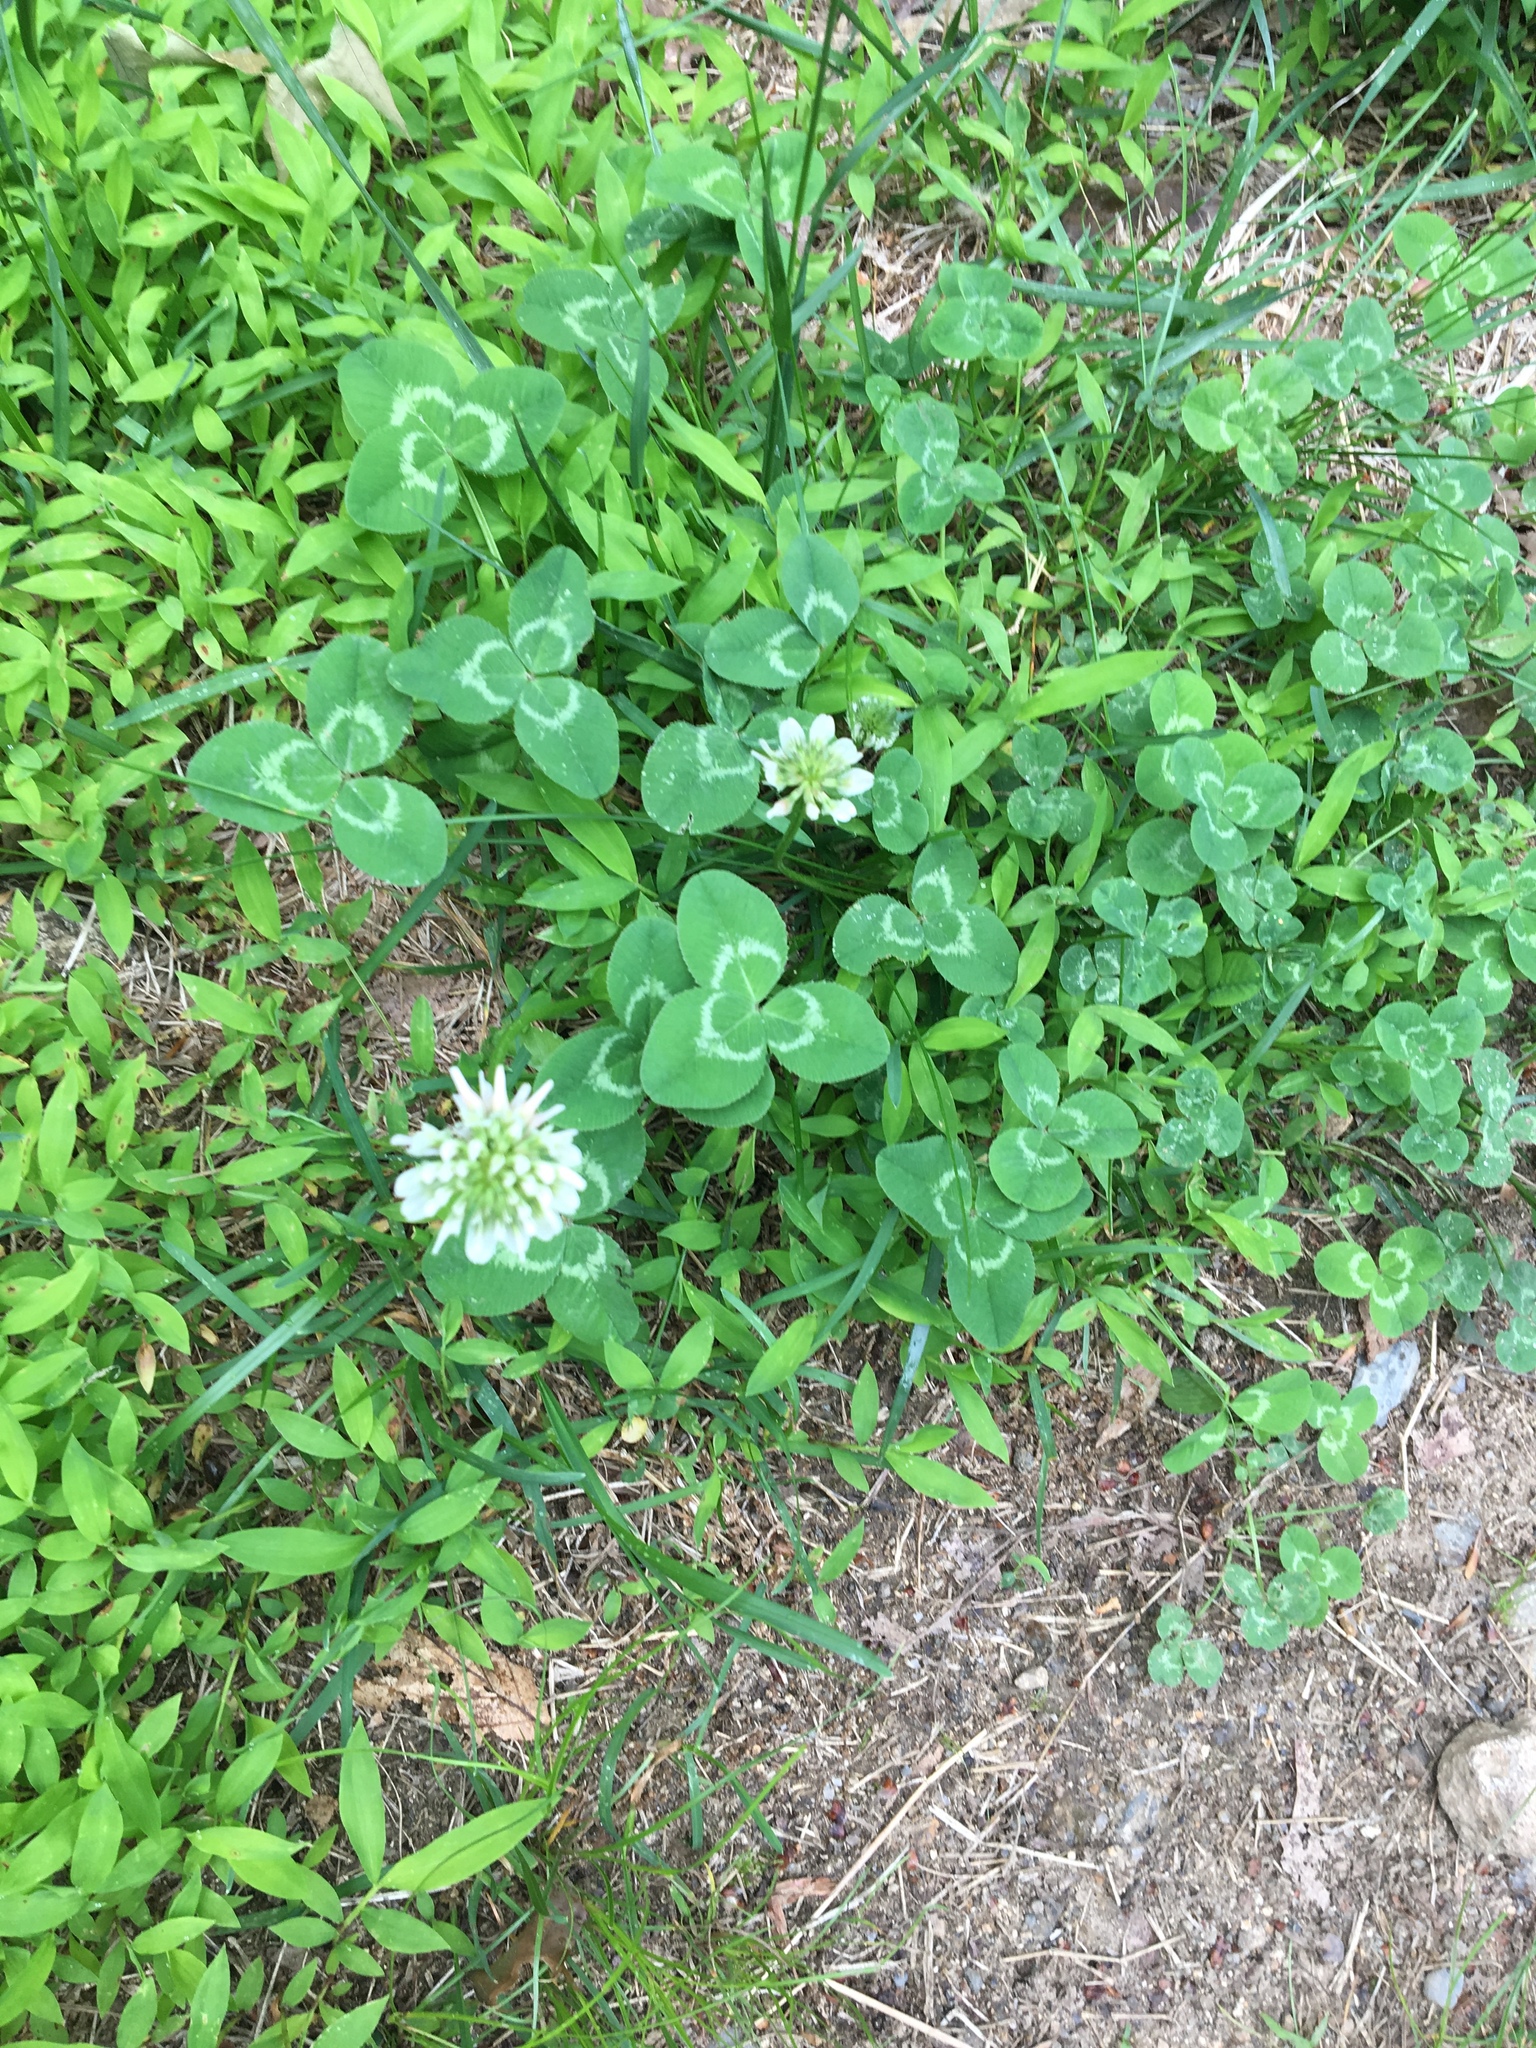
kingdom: Plantae
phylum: Tracheophyta
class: Magnoliopsida
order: Fabales
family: Fabaceae
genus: Trifolium
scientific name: Trifolium repens
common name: White clover
